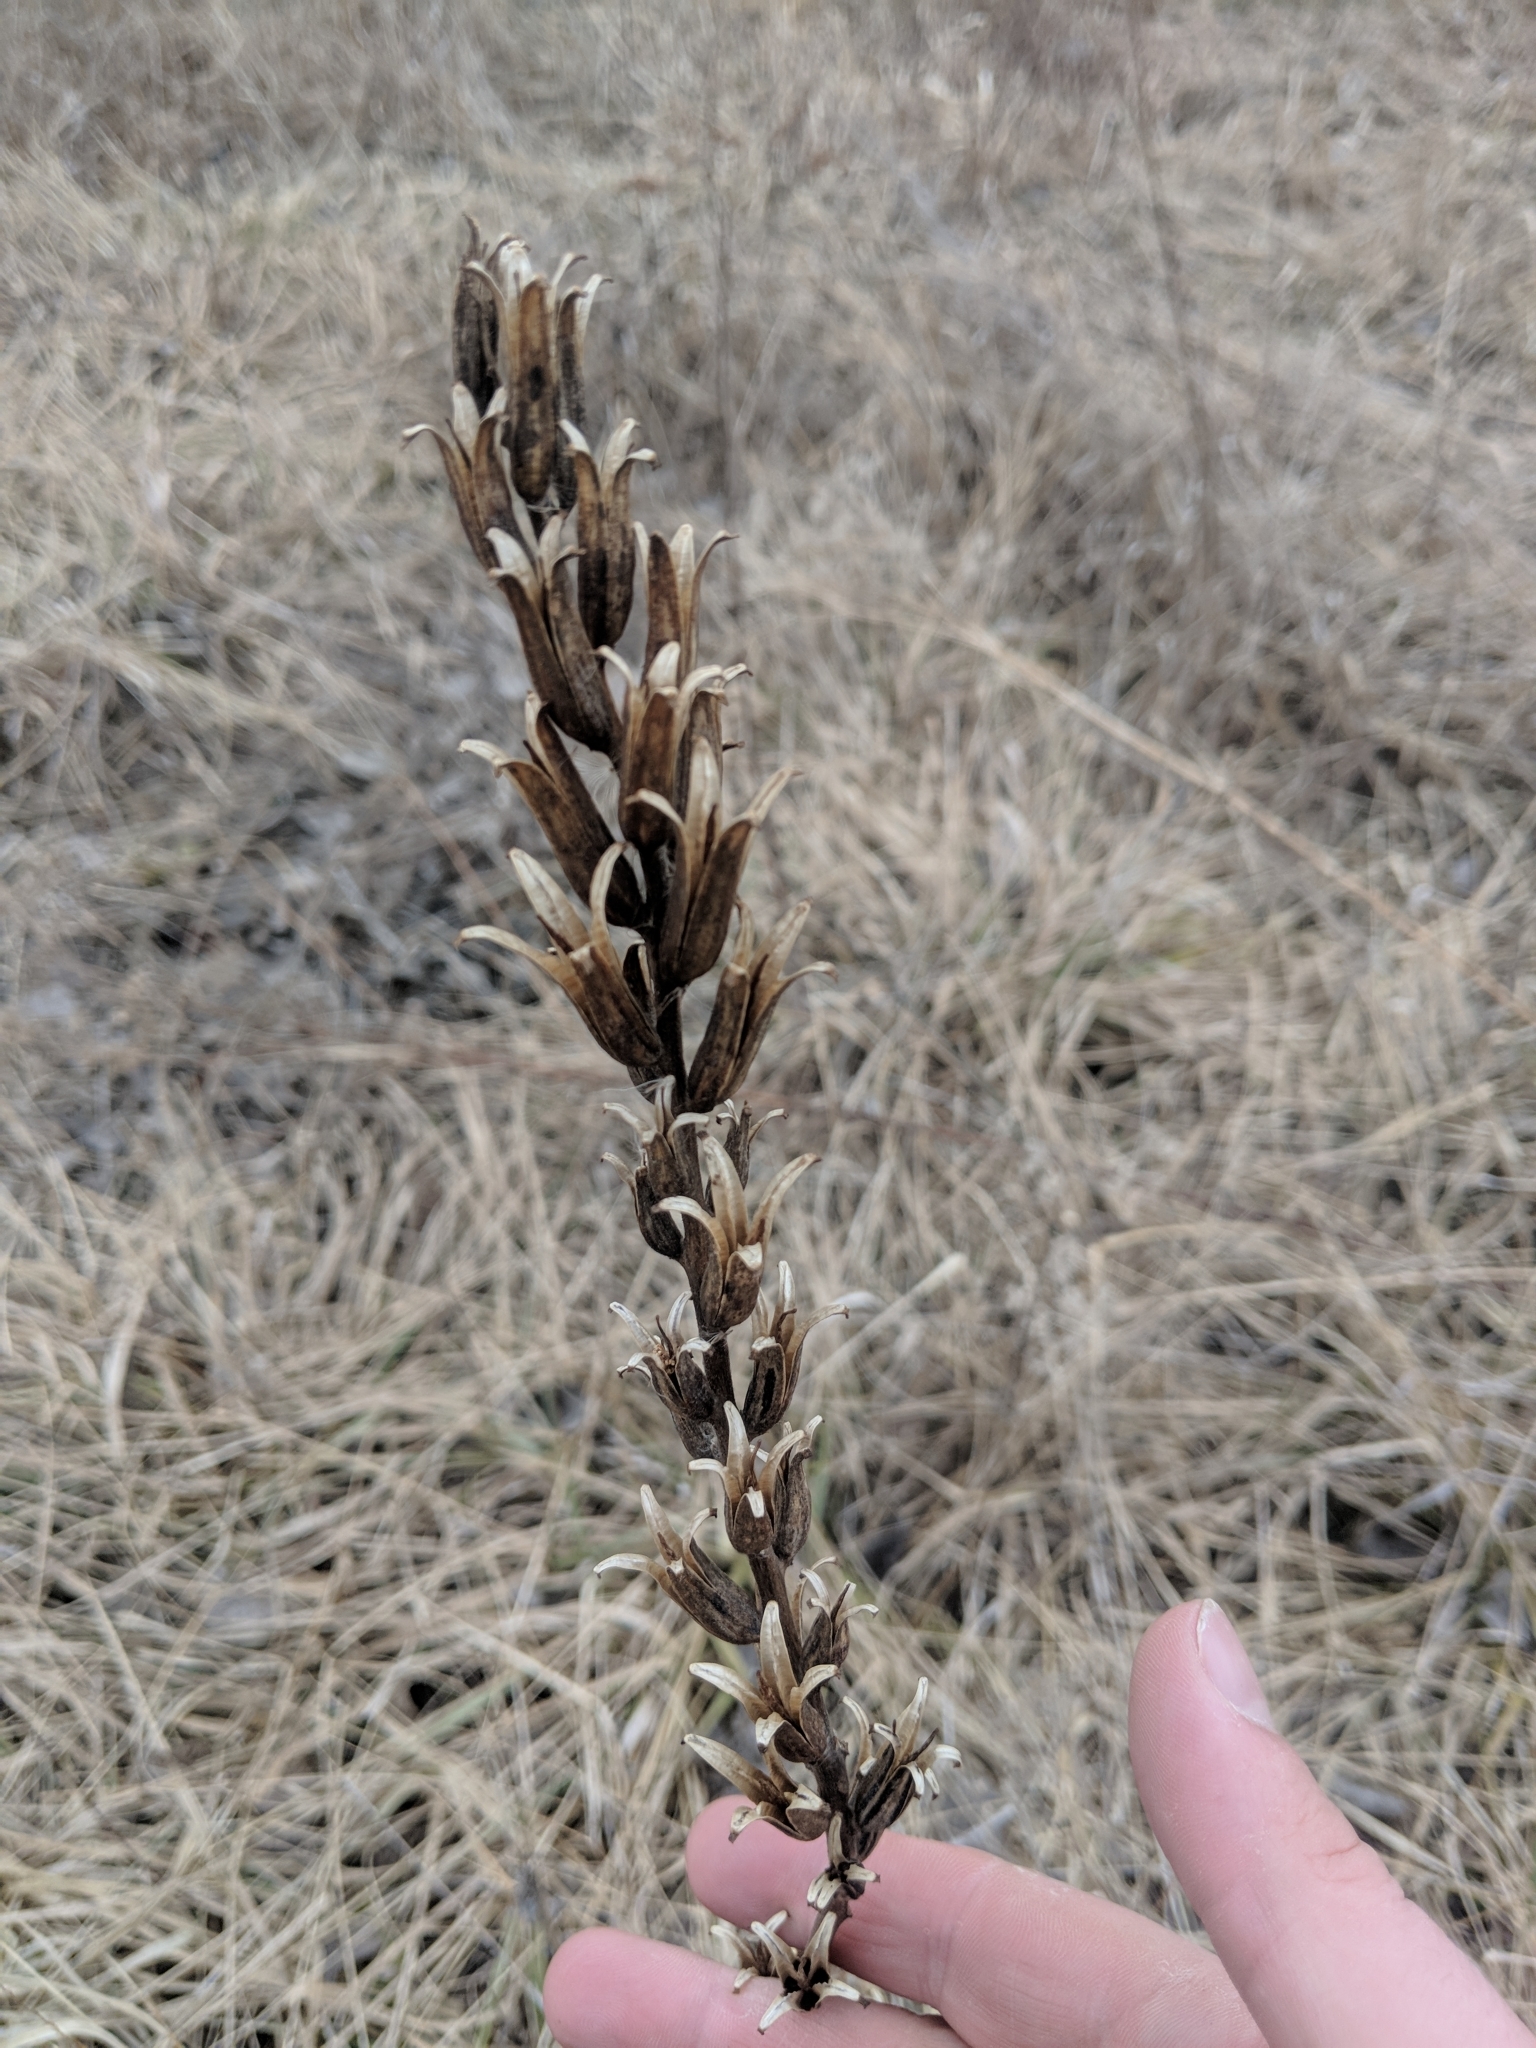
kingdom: Plantae
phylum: Tracheophyta
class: Magnoliopsida
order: Myrtales
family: Onagraceae
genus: Oenothera
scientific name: Oenothera biennis
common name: Common evening-primrose
